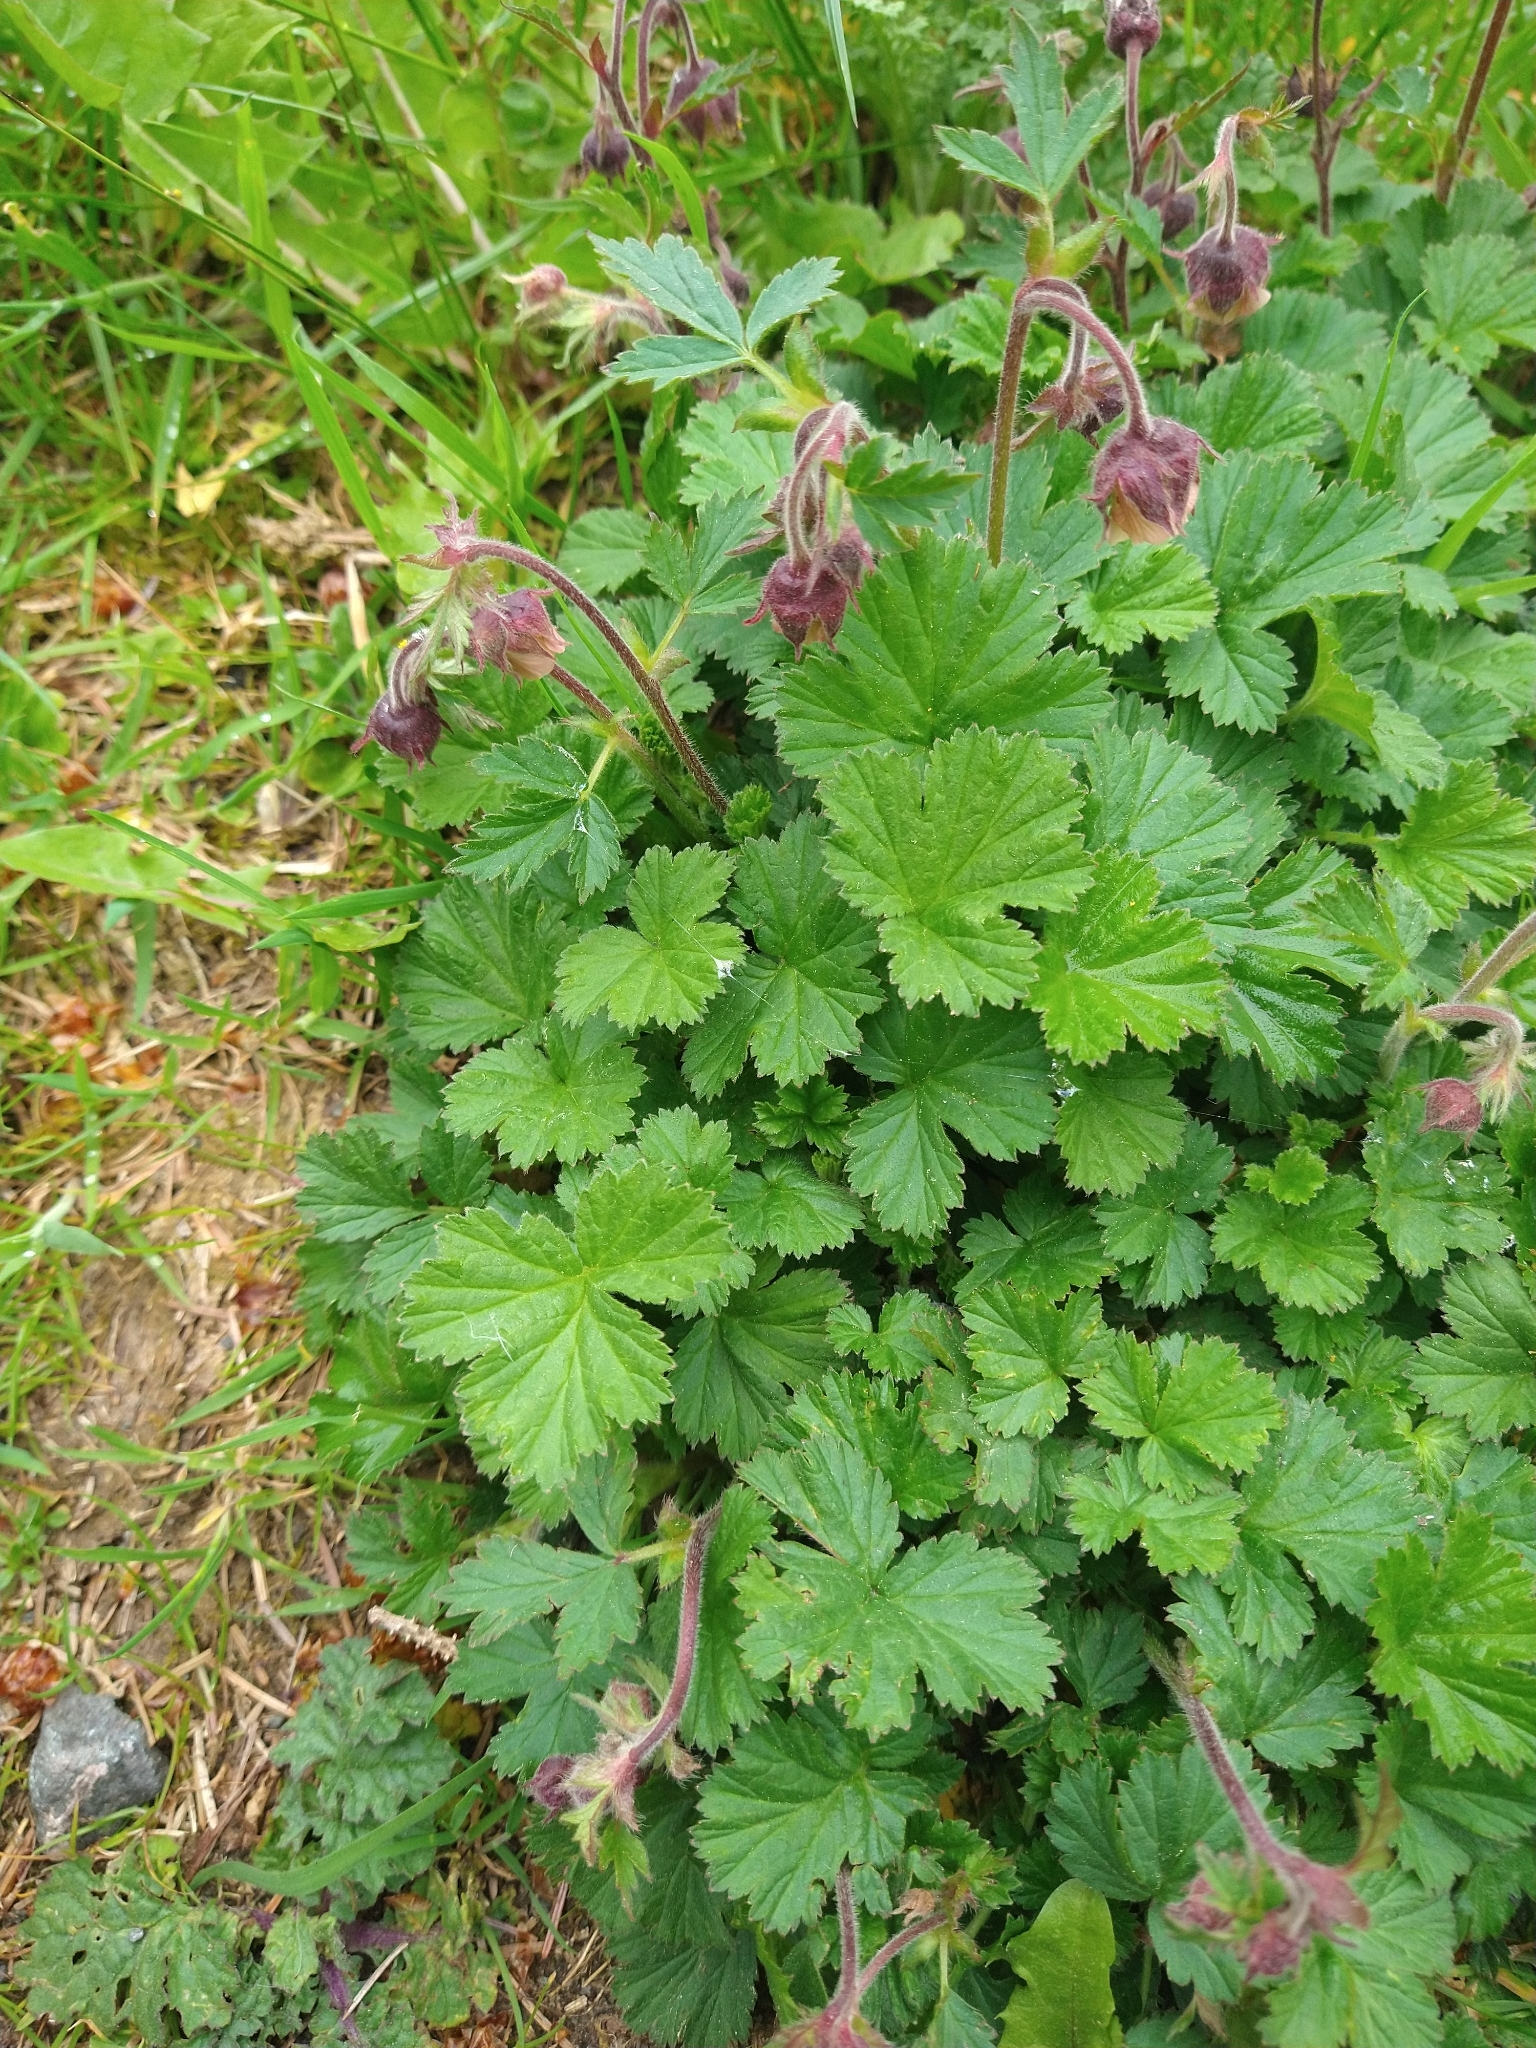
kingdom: Plantae
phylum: Tracheophyta
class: Magnoliopsida
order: Rosales
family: Rosaceae
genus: Geum
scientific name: Geum rivale
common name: Water avens
